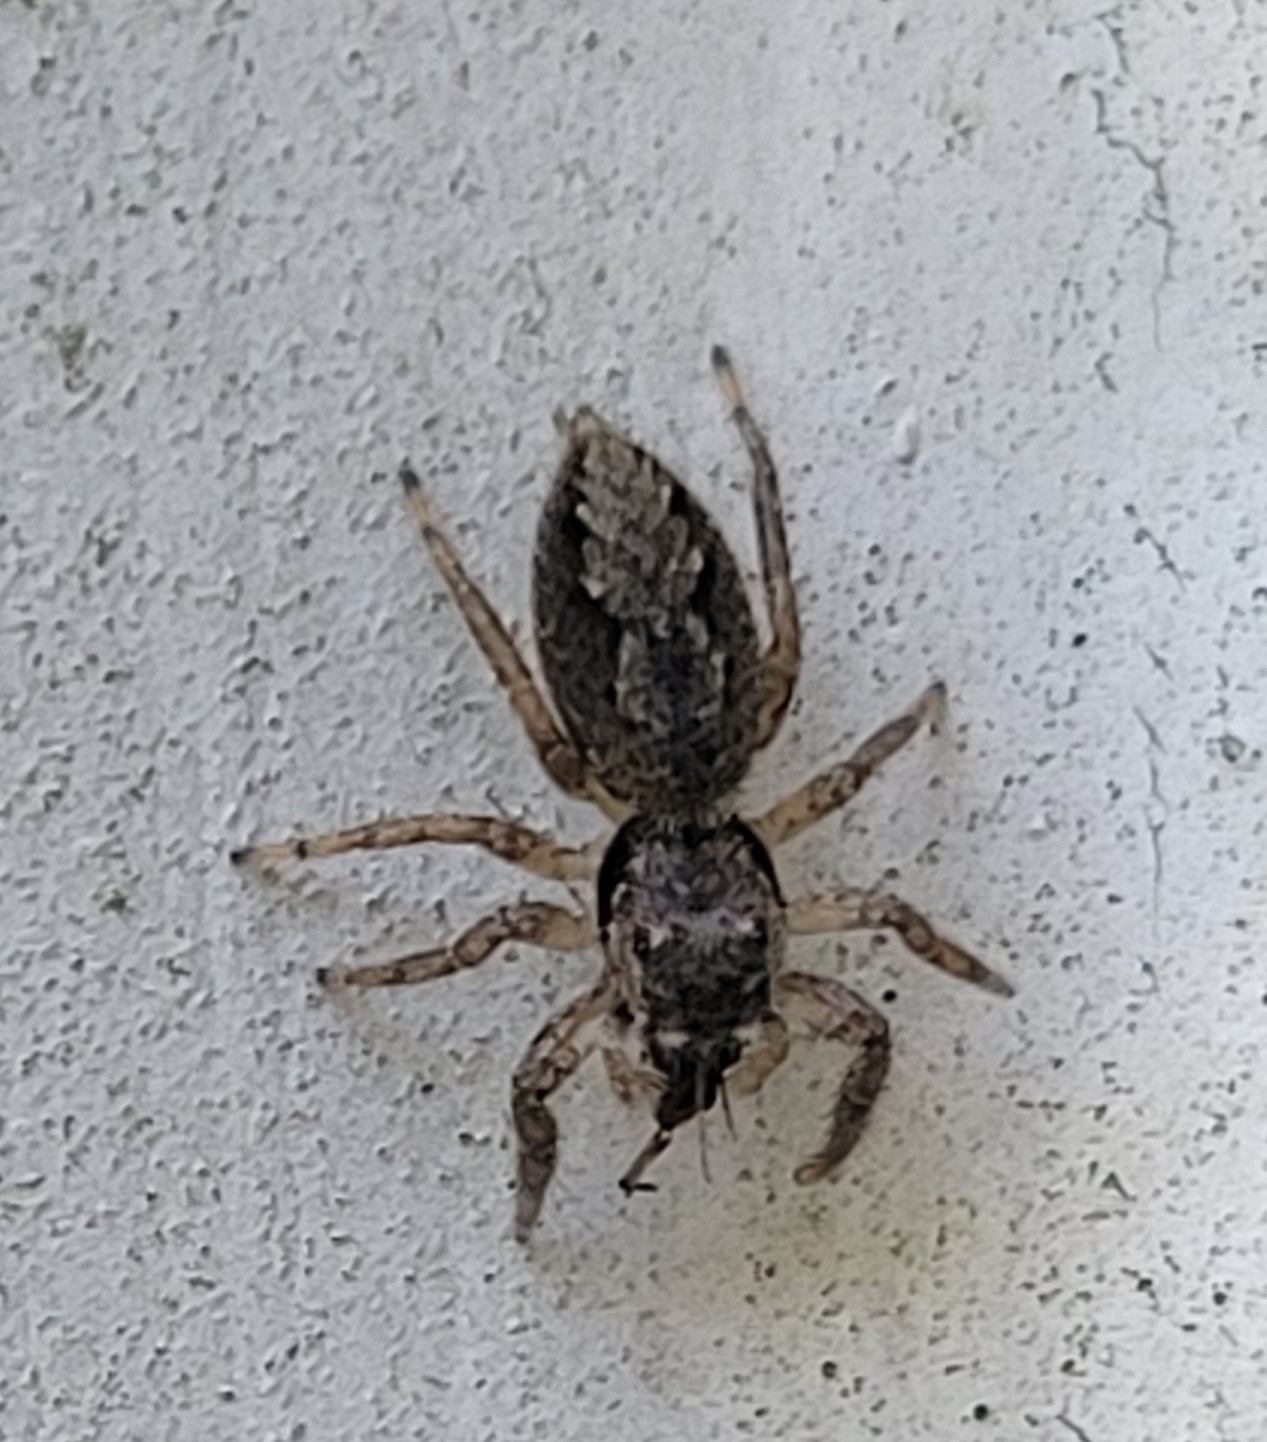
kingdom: Animalia
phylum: Arthropoda
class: Arachnida
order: Araneae
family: Salticidae
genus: Platycryptus
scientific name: Platycryptus undatus
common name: Tan jumping spider
